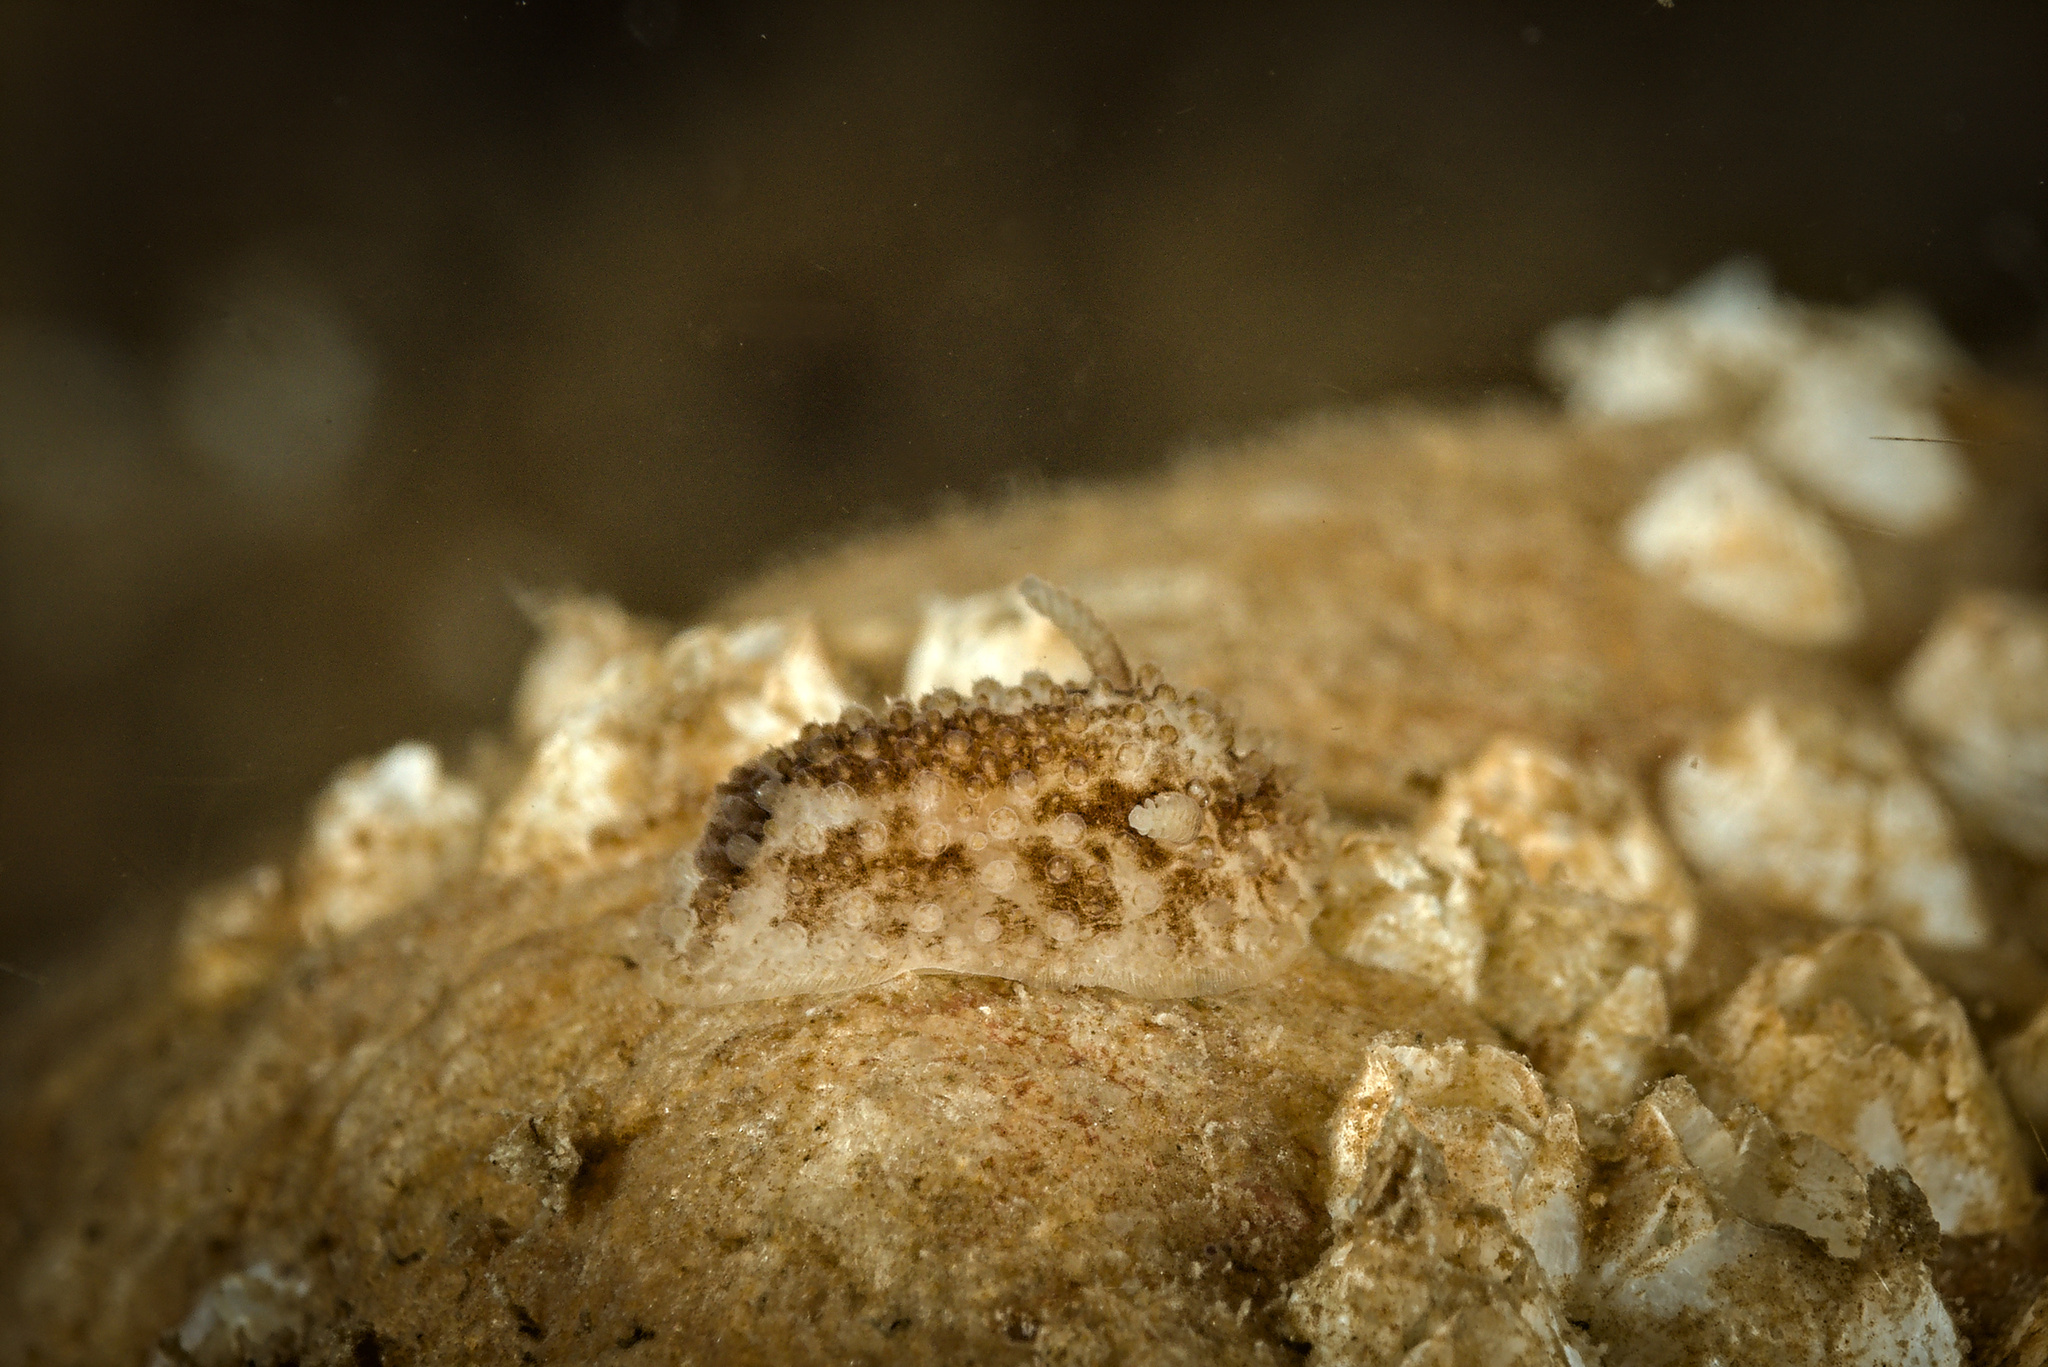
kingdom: Animalia
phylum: Mollusca
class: Gastropoda
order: Nudibranchia
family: Onchidorididae
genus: Onchidoris
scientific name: Onchidoris bilamellata
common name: Barnacle-eating onchidoris
